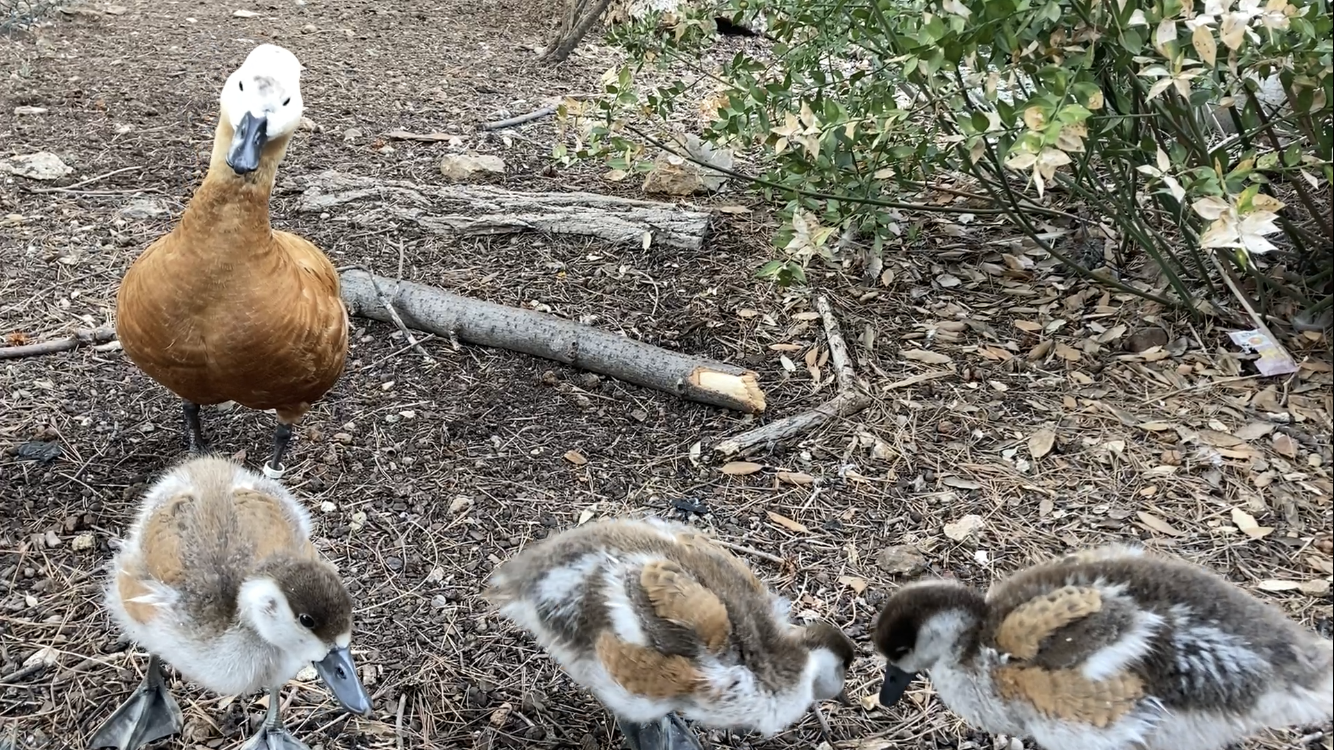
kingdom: Animalia
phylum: Chordata
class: Aves
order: Anseriformes
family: Anatidae
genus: Tadorna
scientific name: Tadorna ferruginea
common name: Ruddy shelduck
